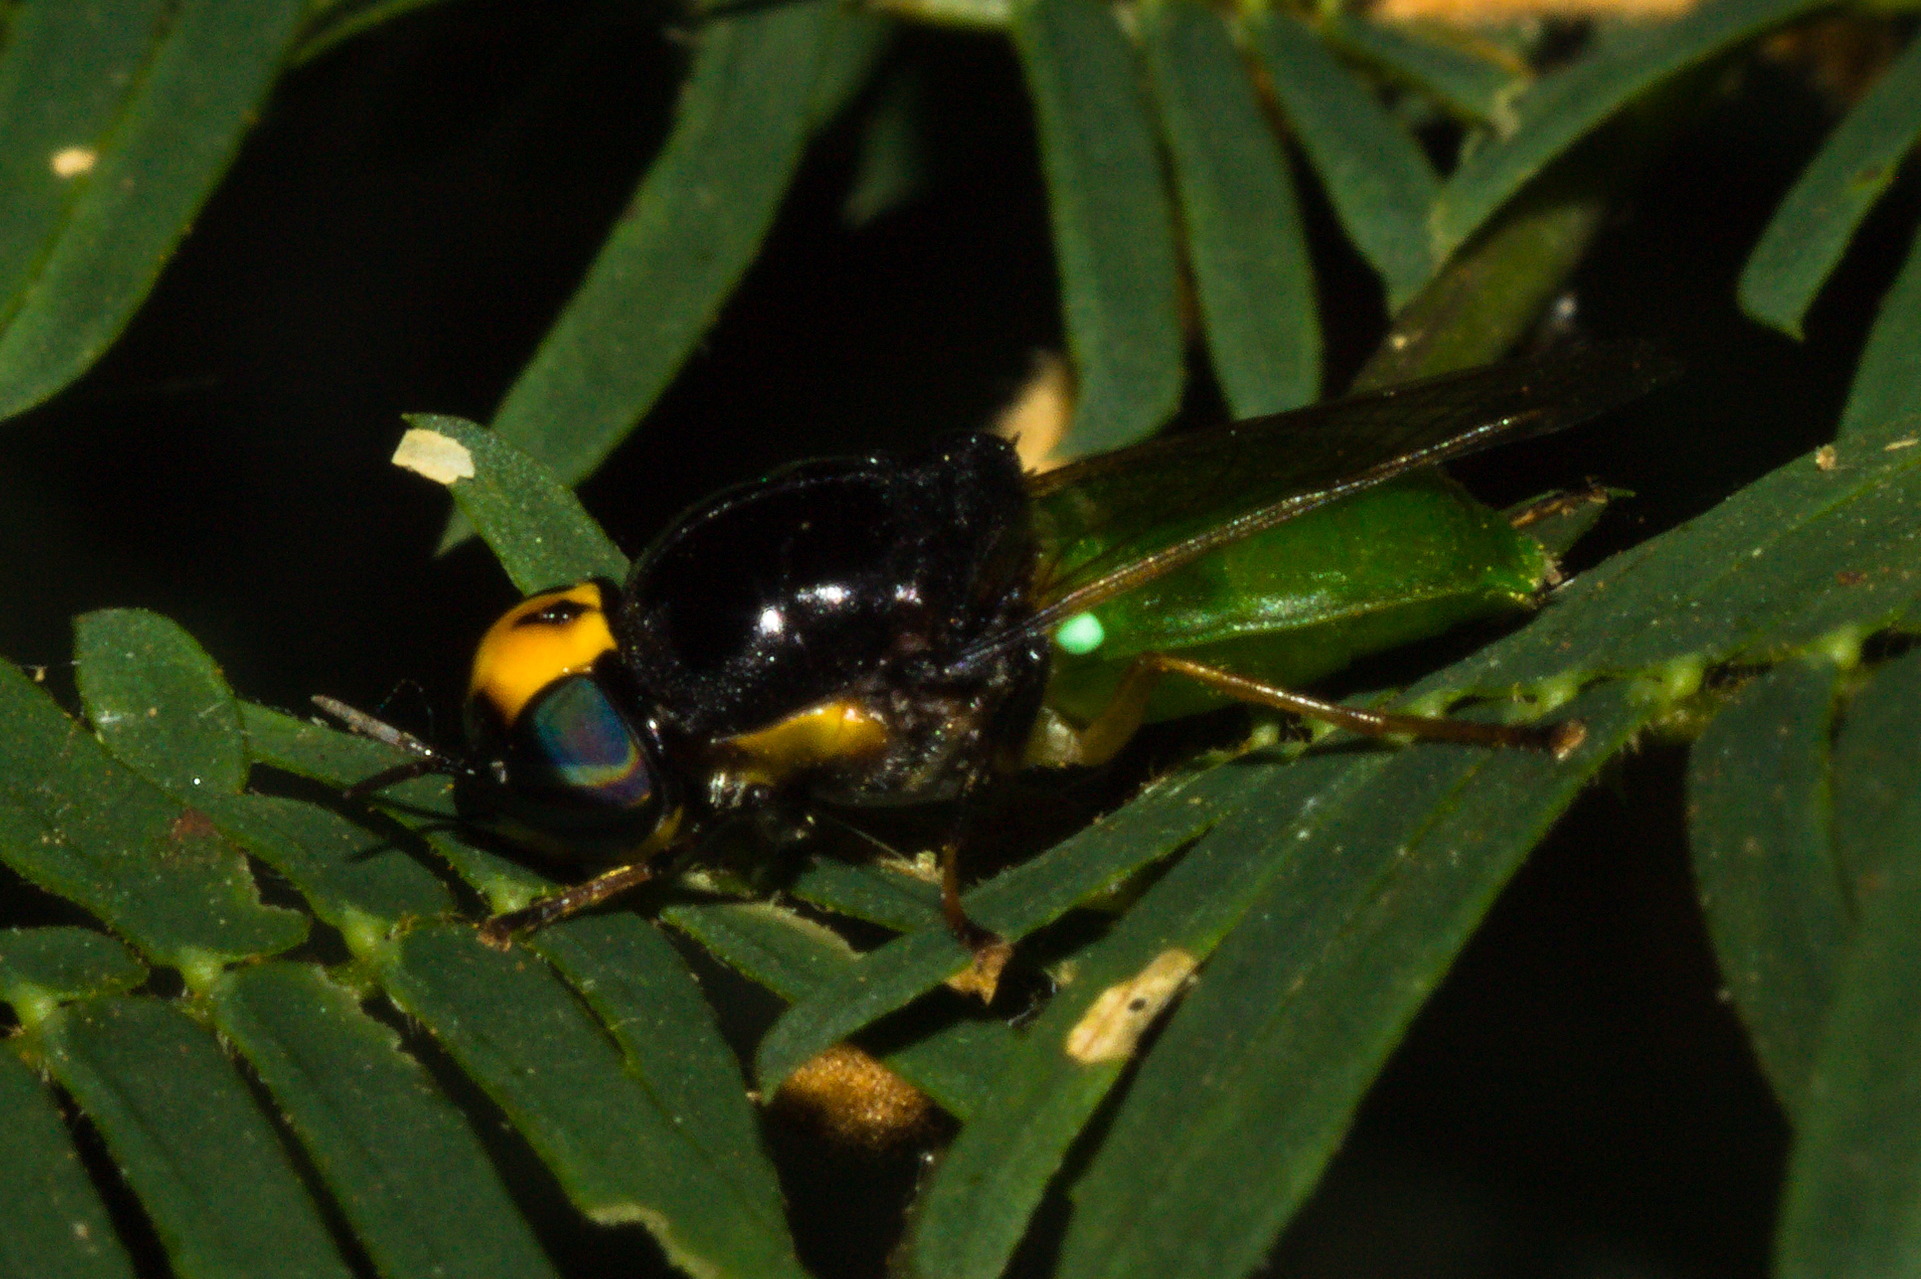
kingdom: Animalia
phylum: Arthropoda
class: Insecta
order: Diptera
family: Stratiomyidae
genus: Chloromelas
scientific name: Chloromelas
